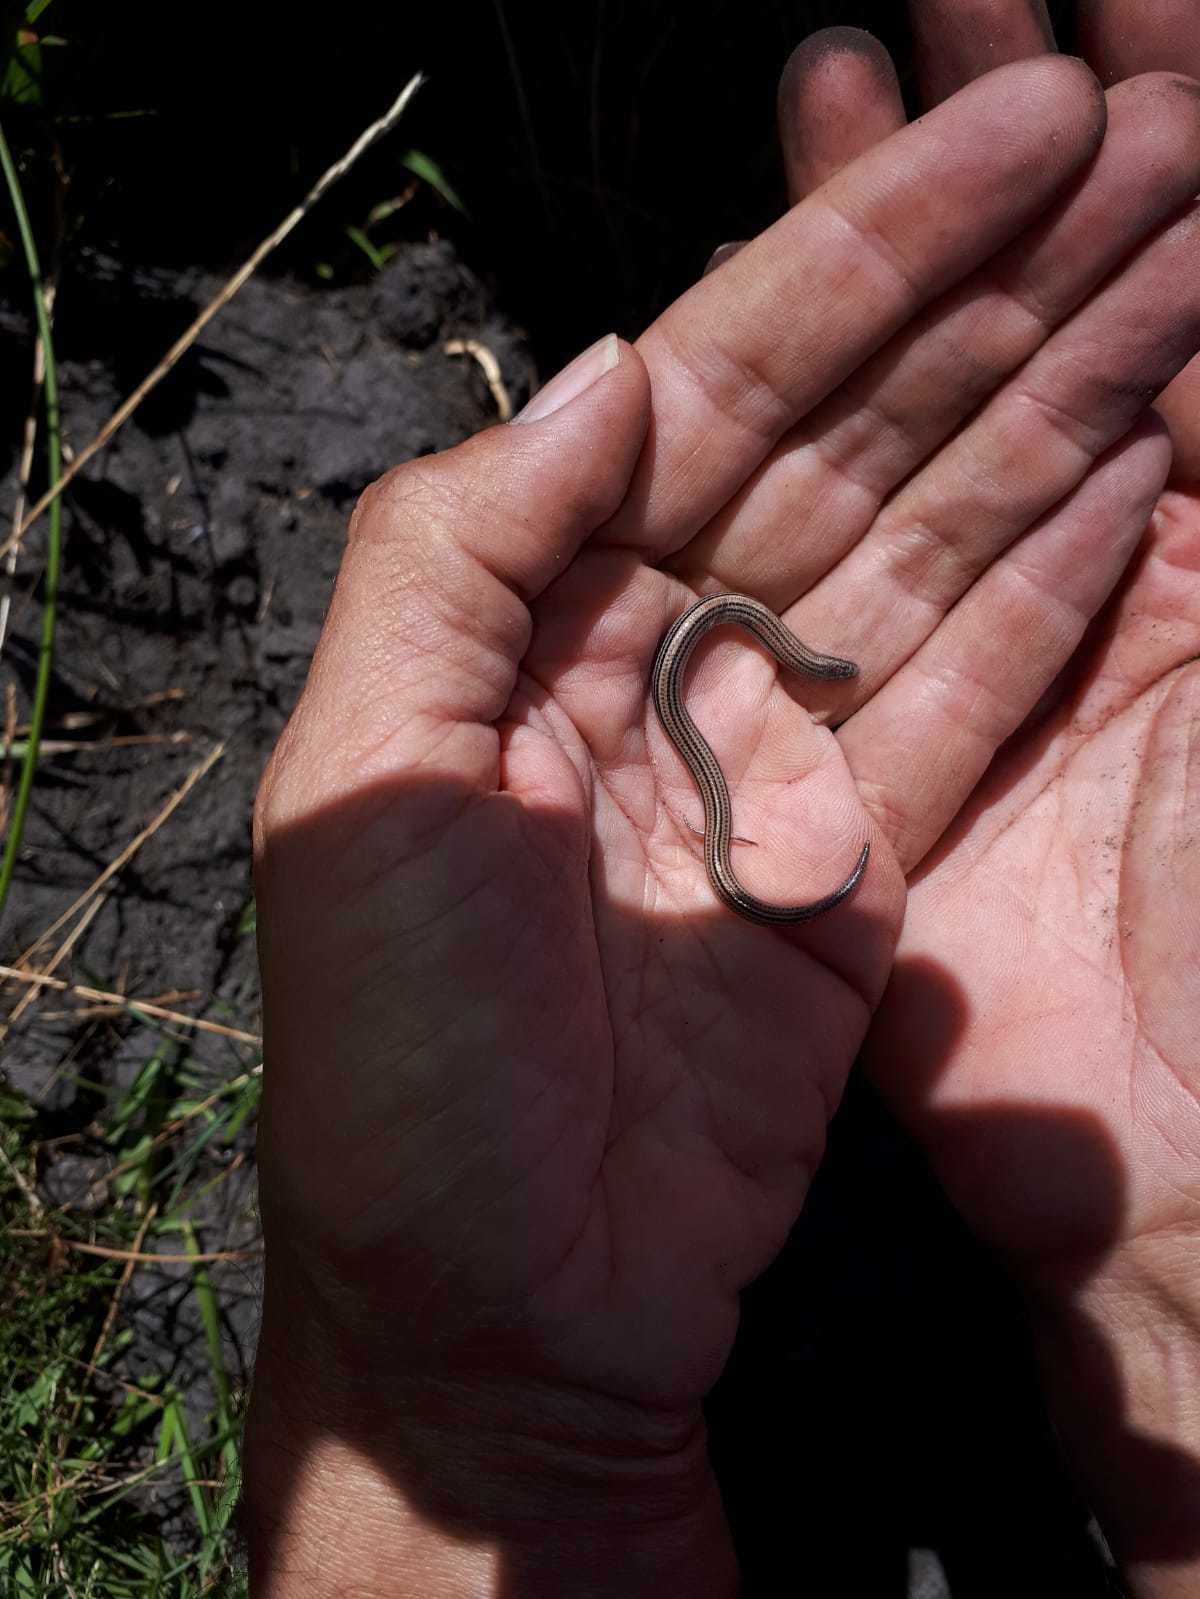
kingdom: Animalia
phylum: Chordata
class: Squamata
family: Scincidae
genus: Scelotes
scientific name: Scelotes gronovii
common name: Gronovi's dwarf burrowing skink
